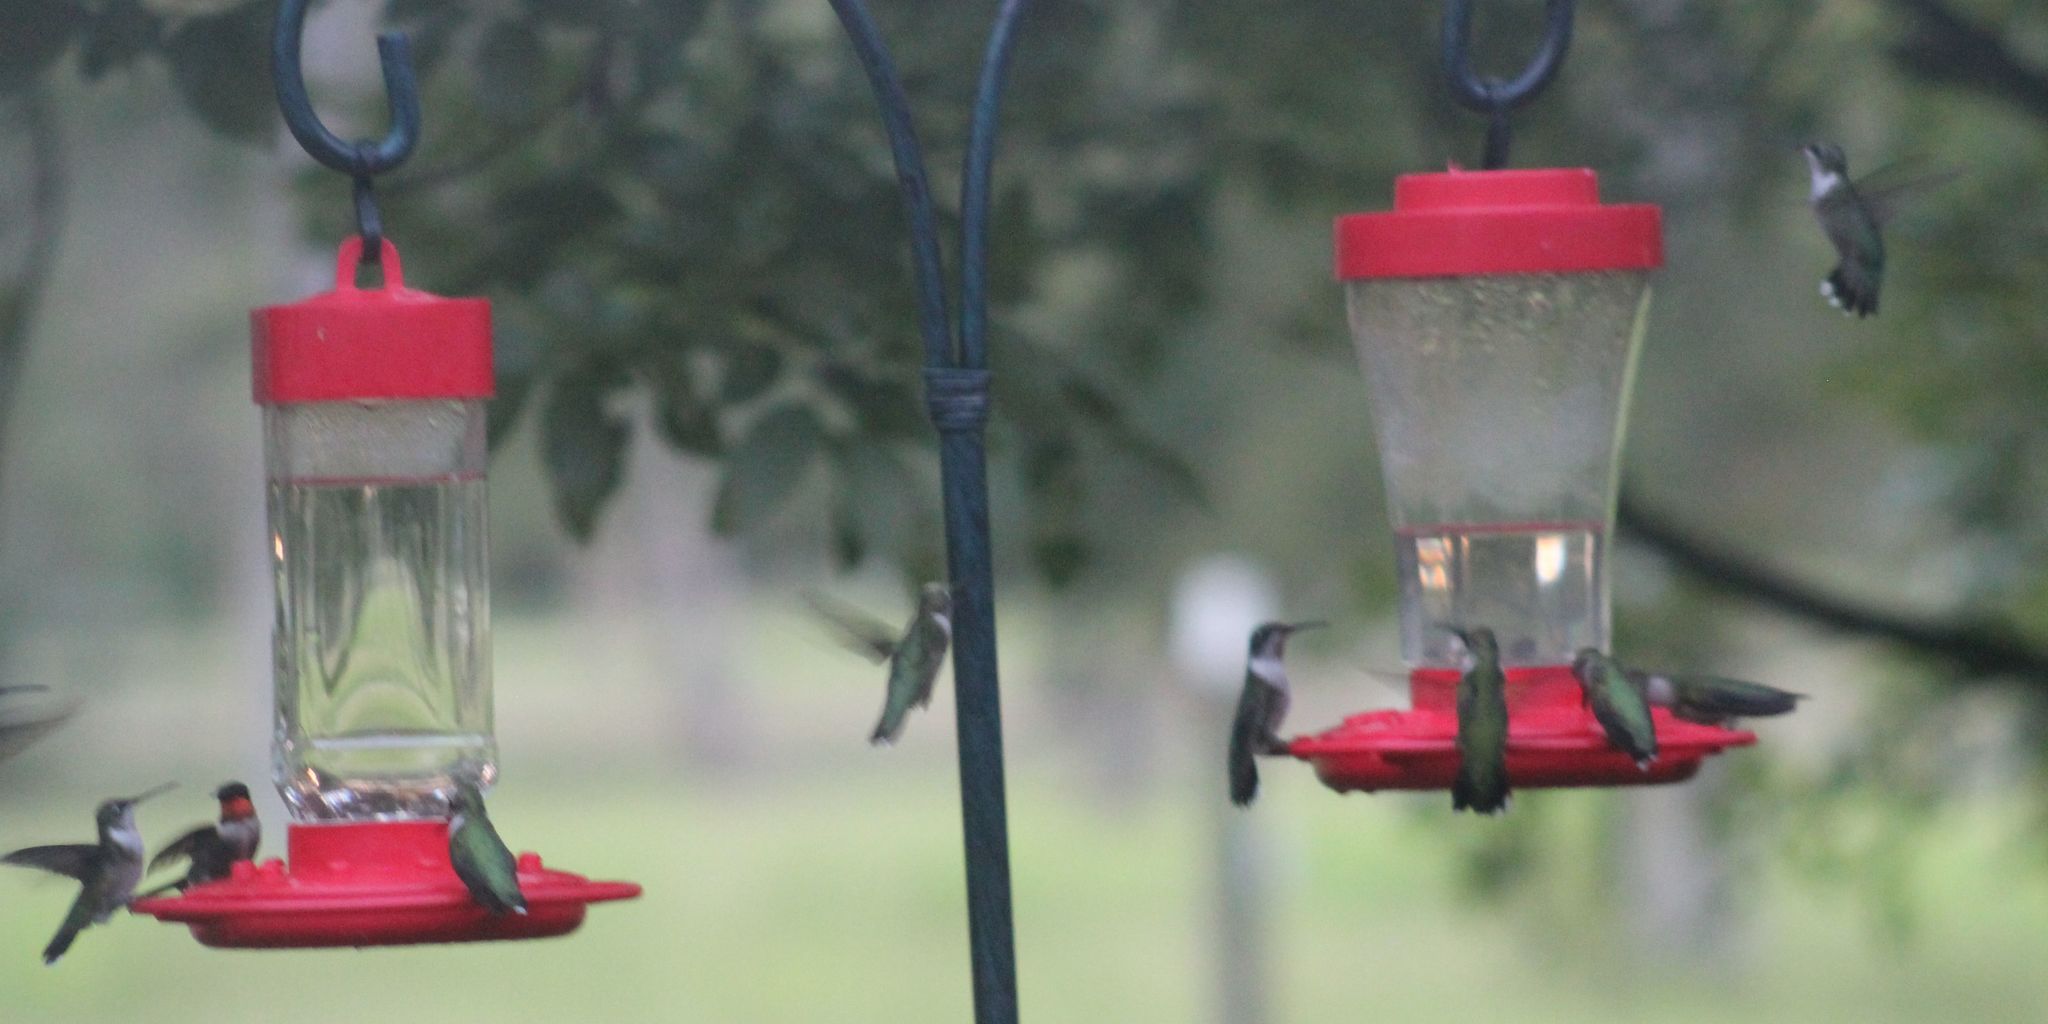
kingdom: Animalia
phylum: Chordata
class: Aves
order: Apodiformes
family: Trochilidae
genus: Archilochus
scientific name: Archilochus colubris
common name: Ruby-throated hummingbird
